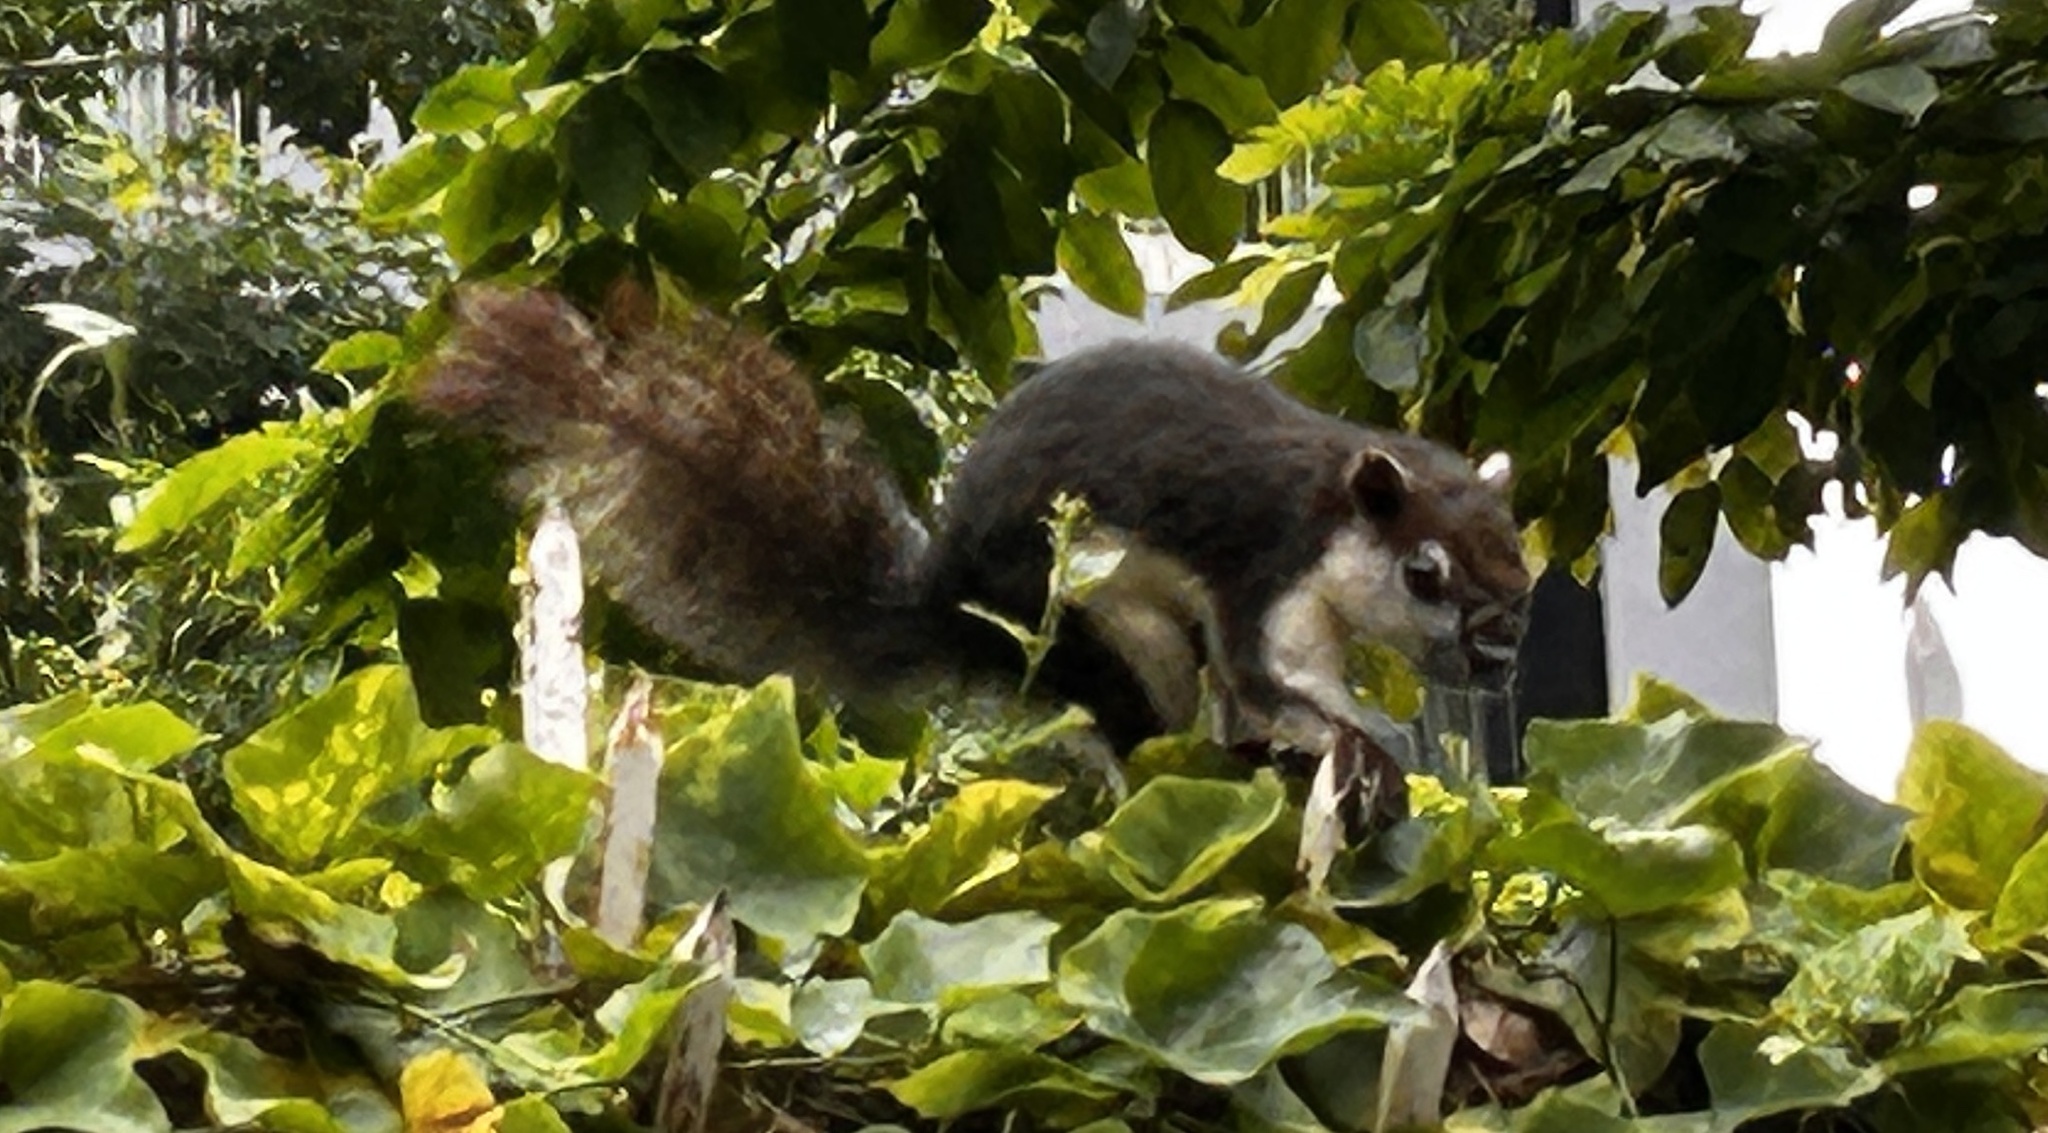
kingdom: Animalia
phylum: Chordata
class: Mammalia
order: Rodentia
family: Sciuridae
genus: Callosciurus
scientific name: Callosciurus finlaysonii
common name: Finlayson's squirrel
